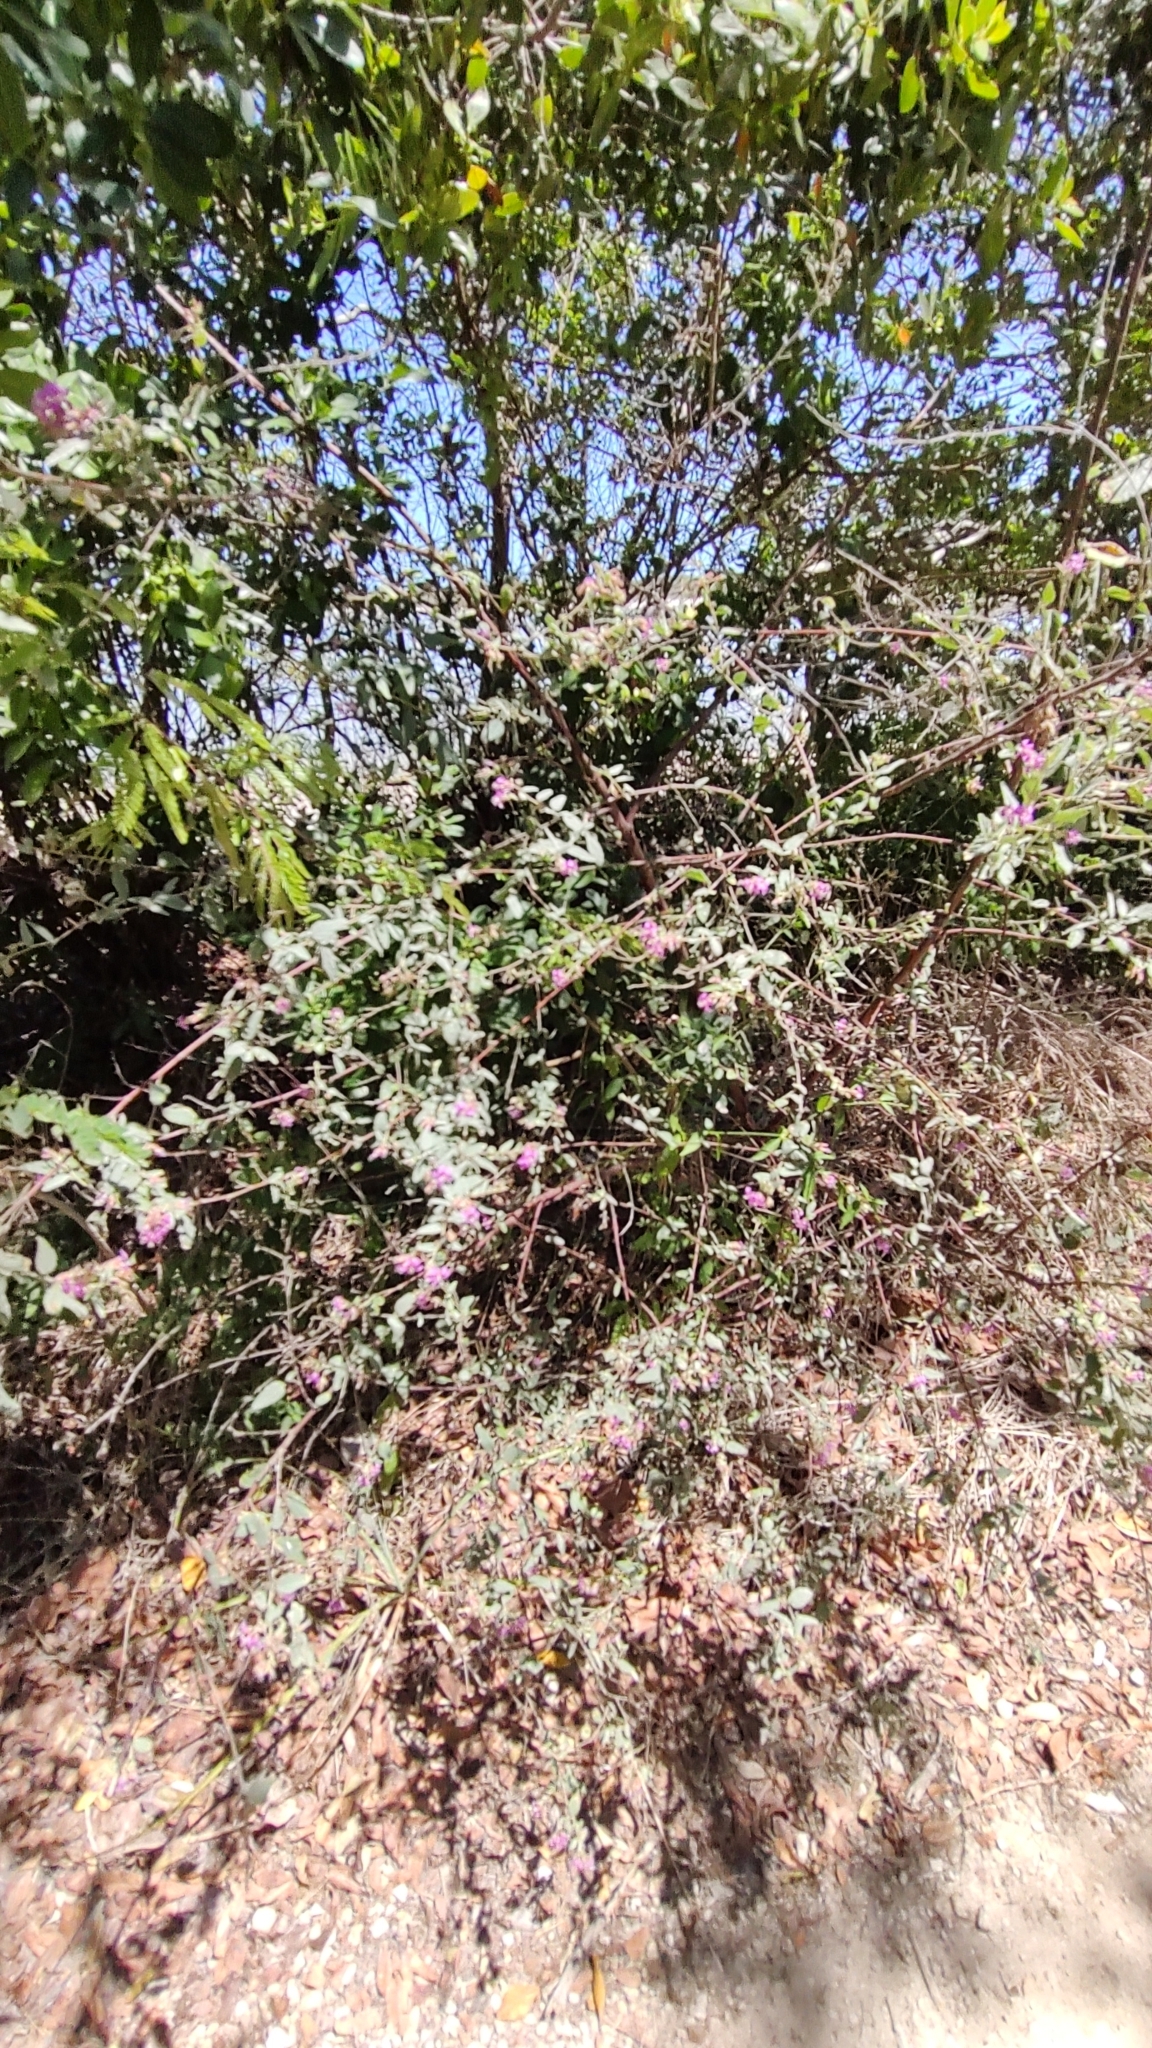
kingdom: Plantae
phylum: Tracheophyta
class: Magnoliopsida
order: Malvales
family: Malvaceae
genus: Melochia
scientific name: Melochia tomentosa
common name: Black torch
